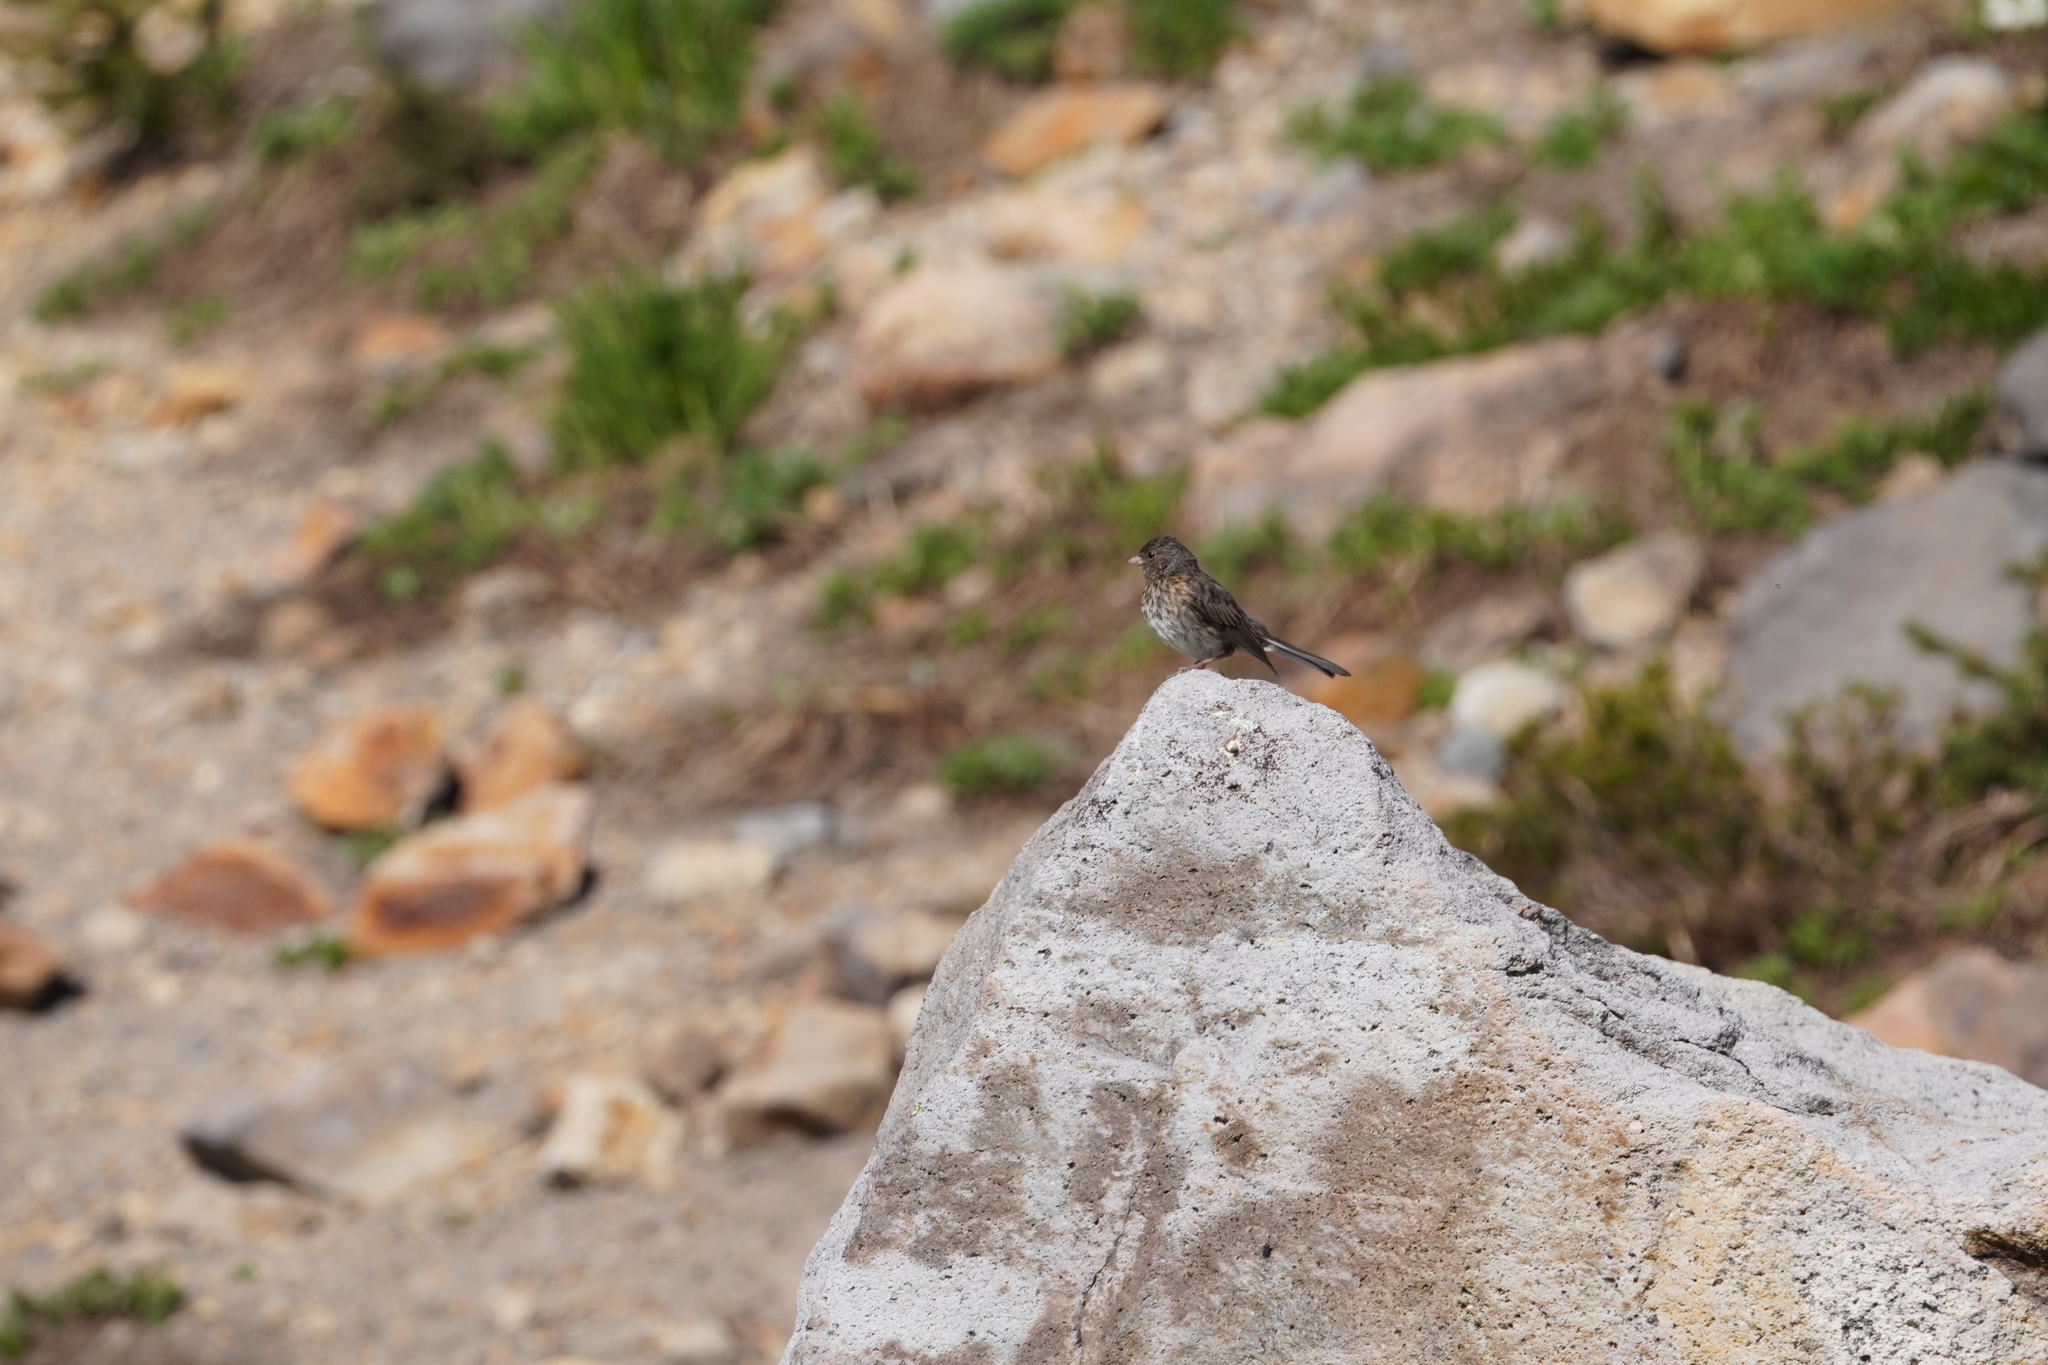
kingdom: Animalia
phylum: Chordata
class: Aves
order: Passeriformes
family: Passerellidae
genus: Junco
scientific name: Junco hyemalis
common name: Dark-eyed junco
